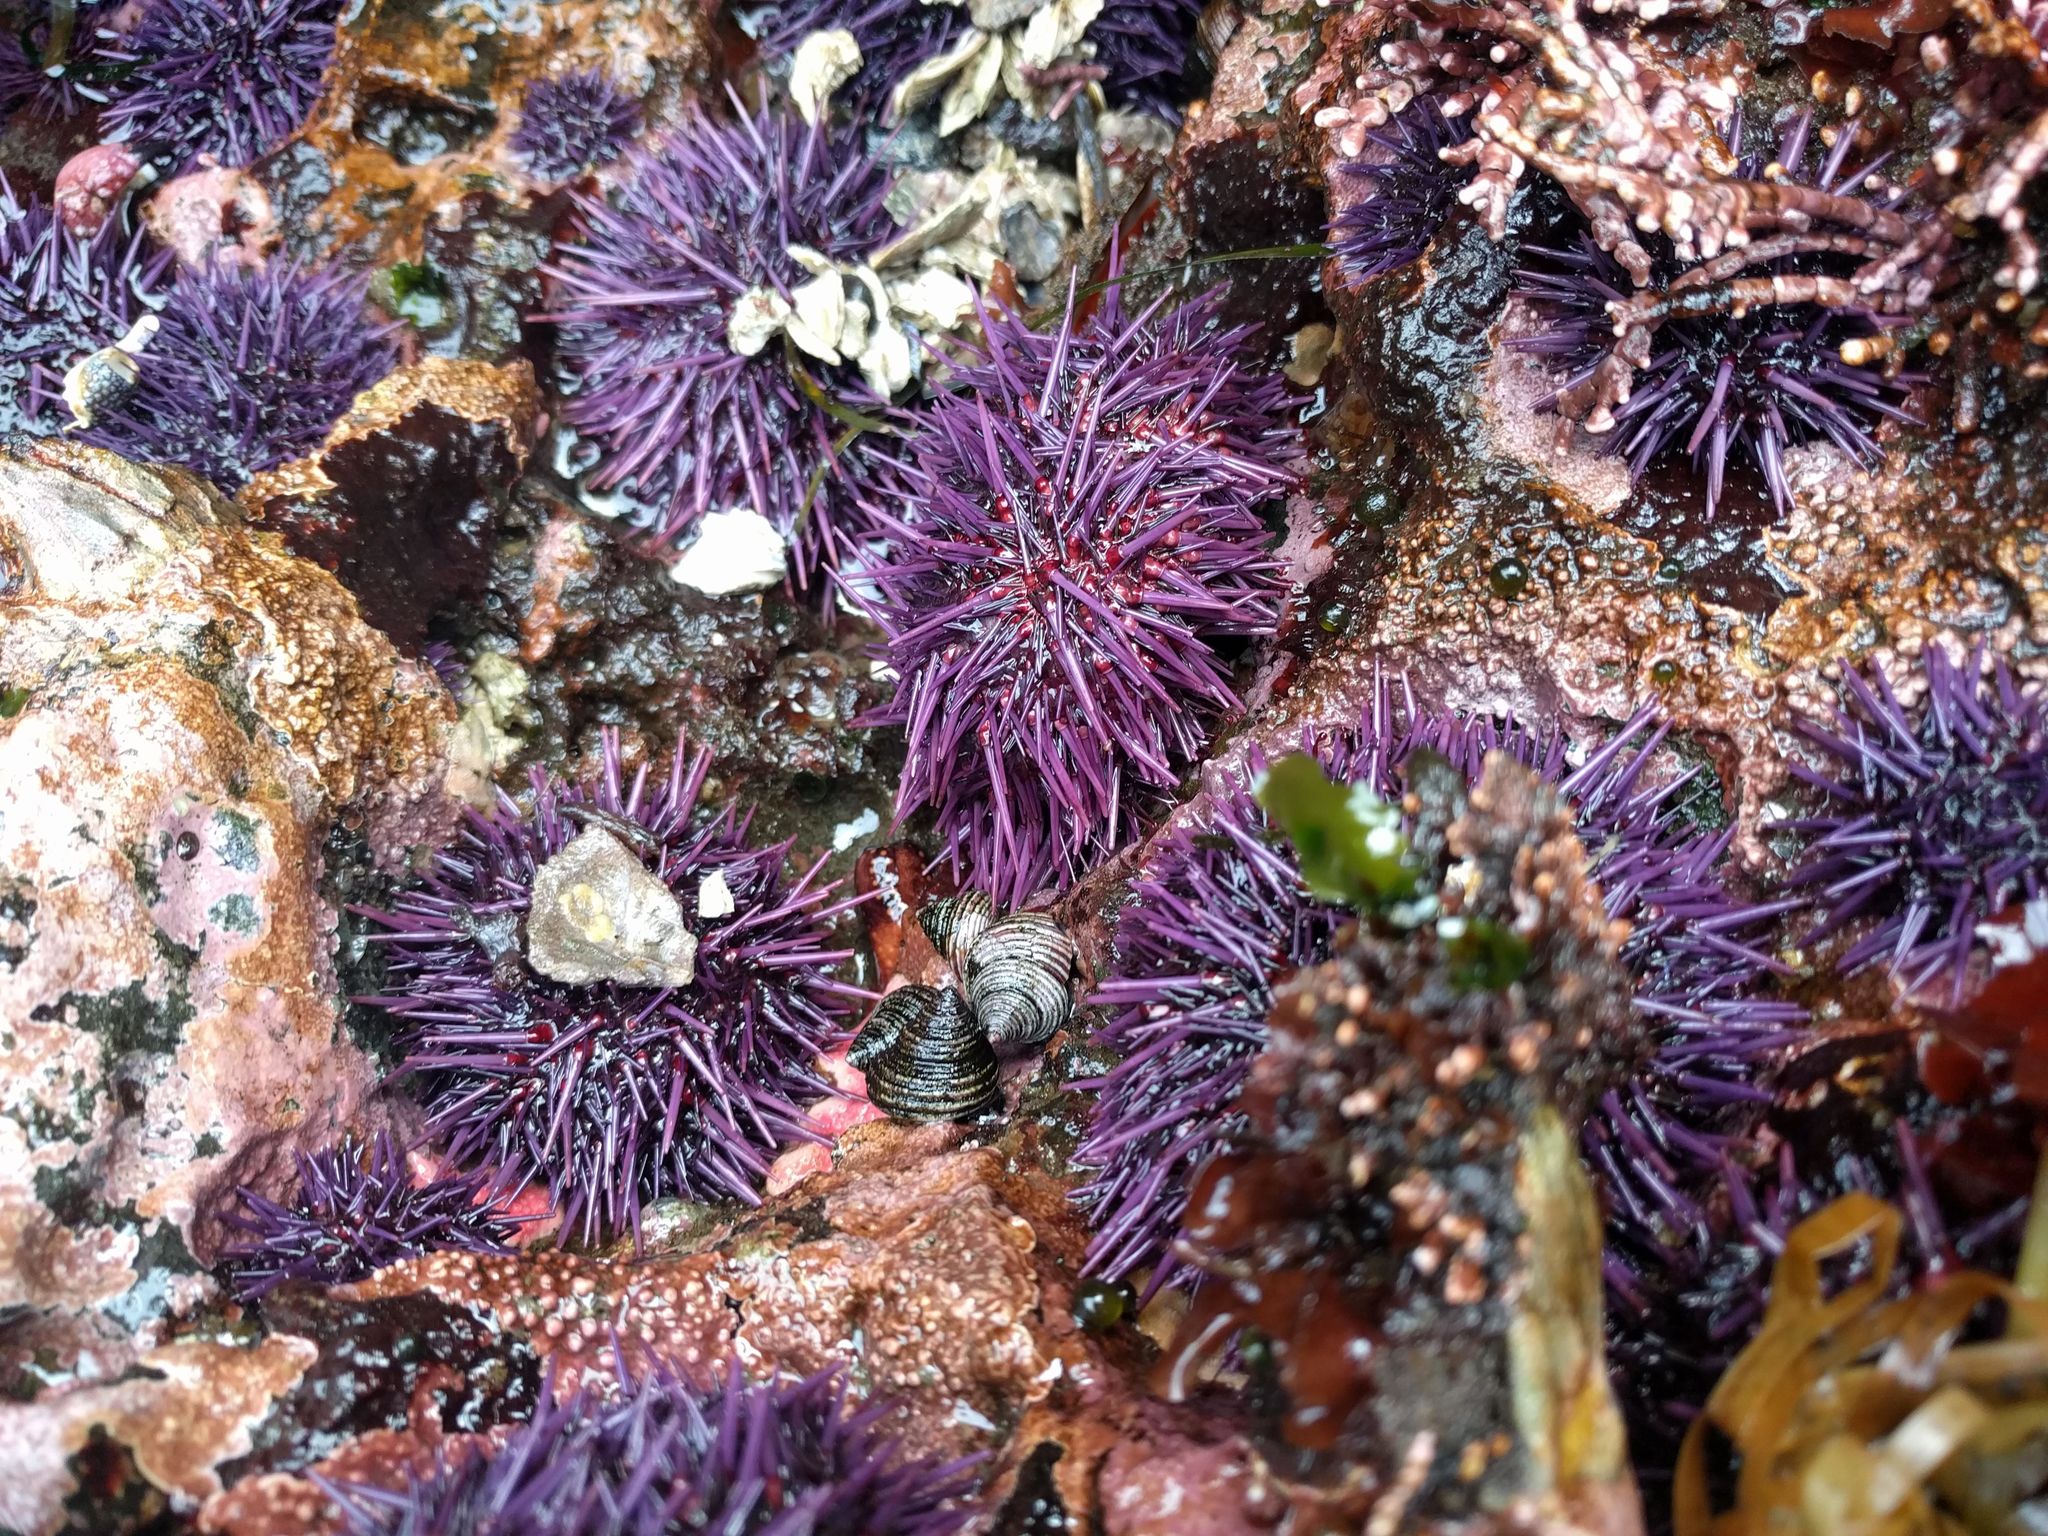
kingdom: Animalia
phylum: Echinodermata
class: Echinoidea
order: Camarodonta
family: Strongylocentrotidae
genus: Strongylocentrotus
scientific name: Strongylocentrotus purpuratus
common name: Purple sea urchin
